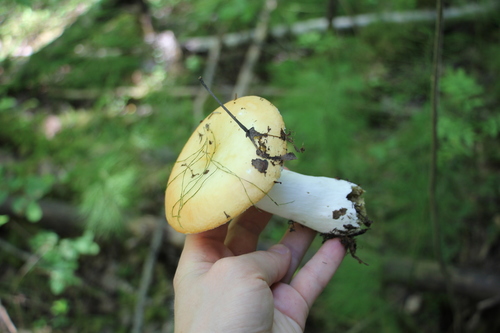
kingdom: Fungi
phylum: Basidiomycota
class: Agaricomycetes
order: Russulales
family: Russulaceae
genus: Russula
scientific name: Russula intermedia
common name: Intermediate brittlegill
